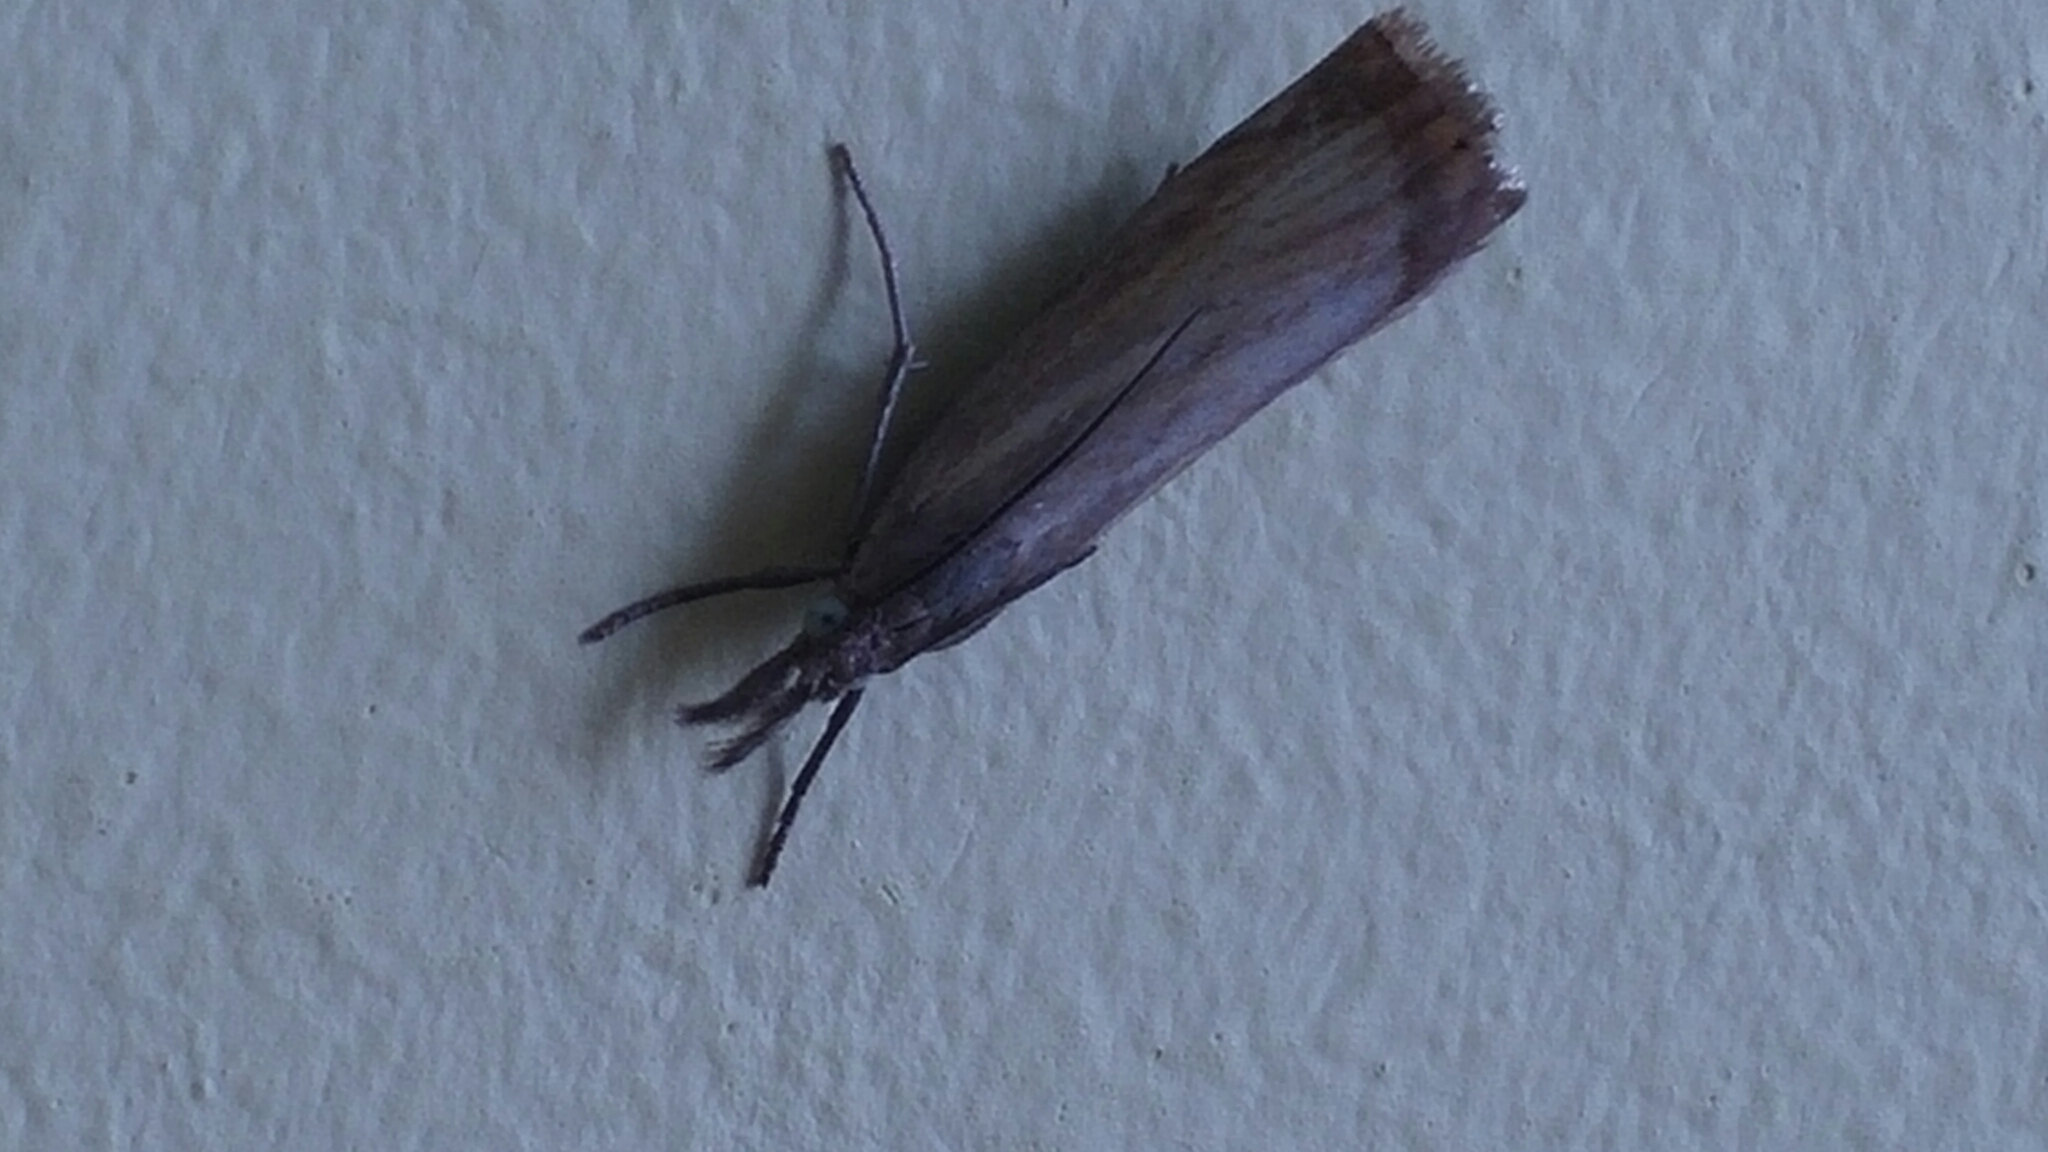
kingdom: Animalia
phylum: Arthropoda
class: Insecta
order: Lepidoptera
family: Crambidae
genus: Chrysoteuchia
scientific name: Chrysoteuchia culmella
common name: Garden grass-veneer
